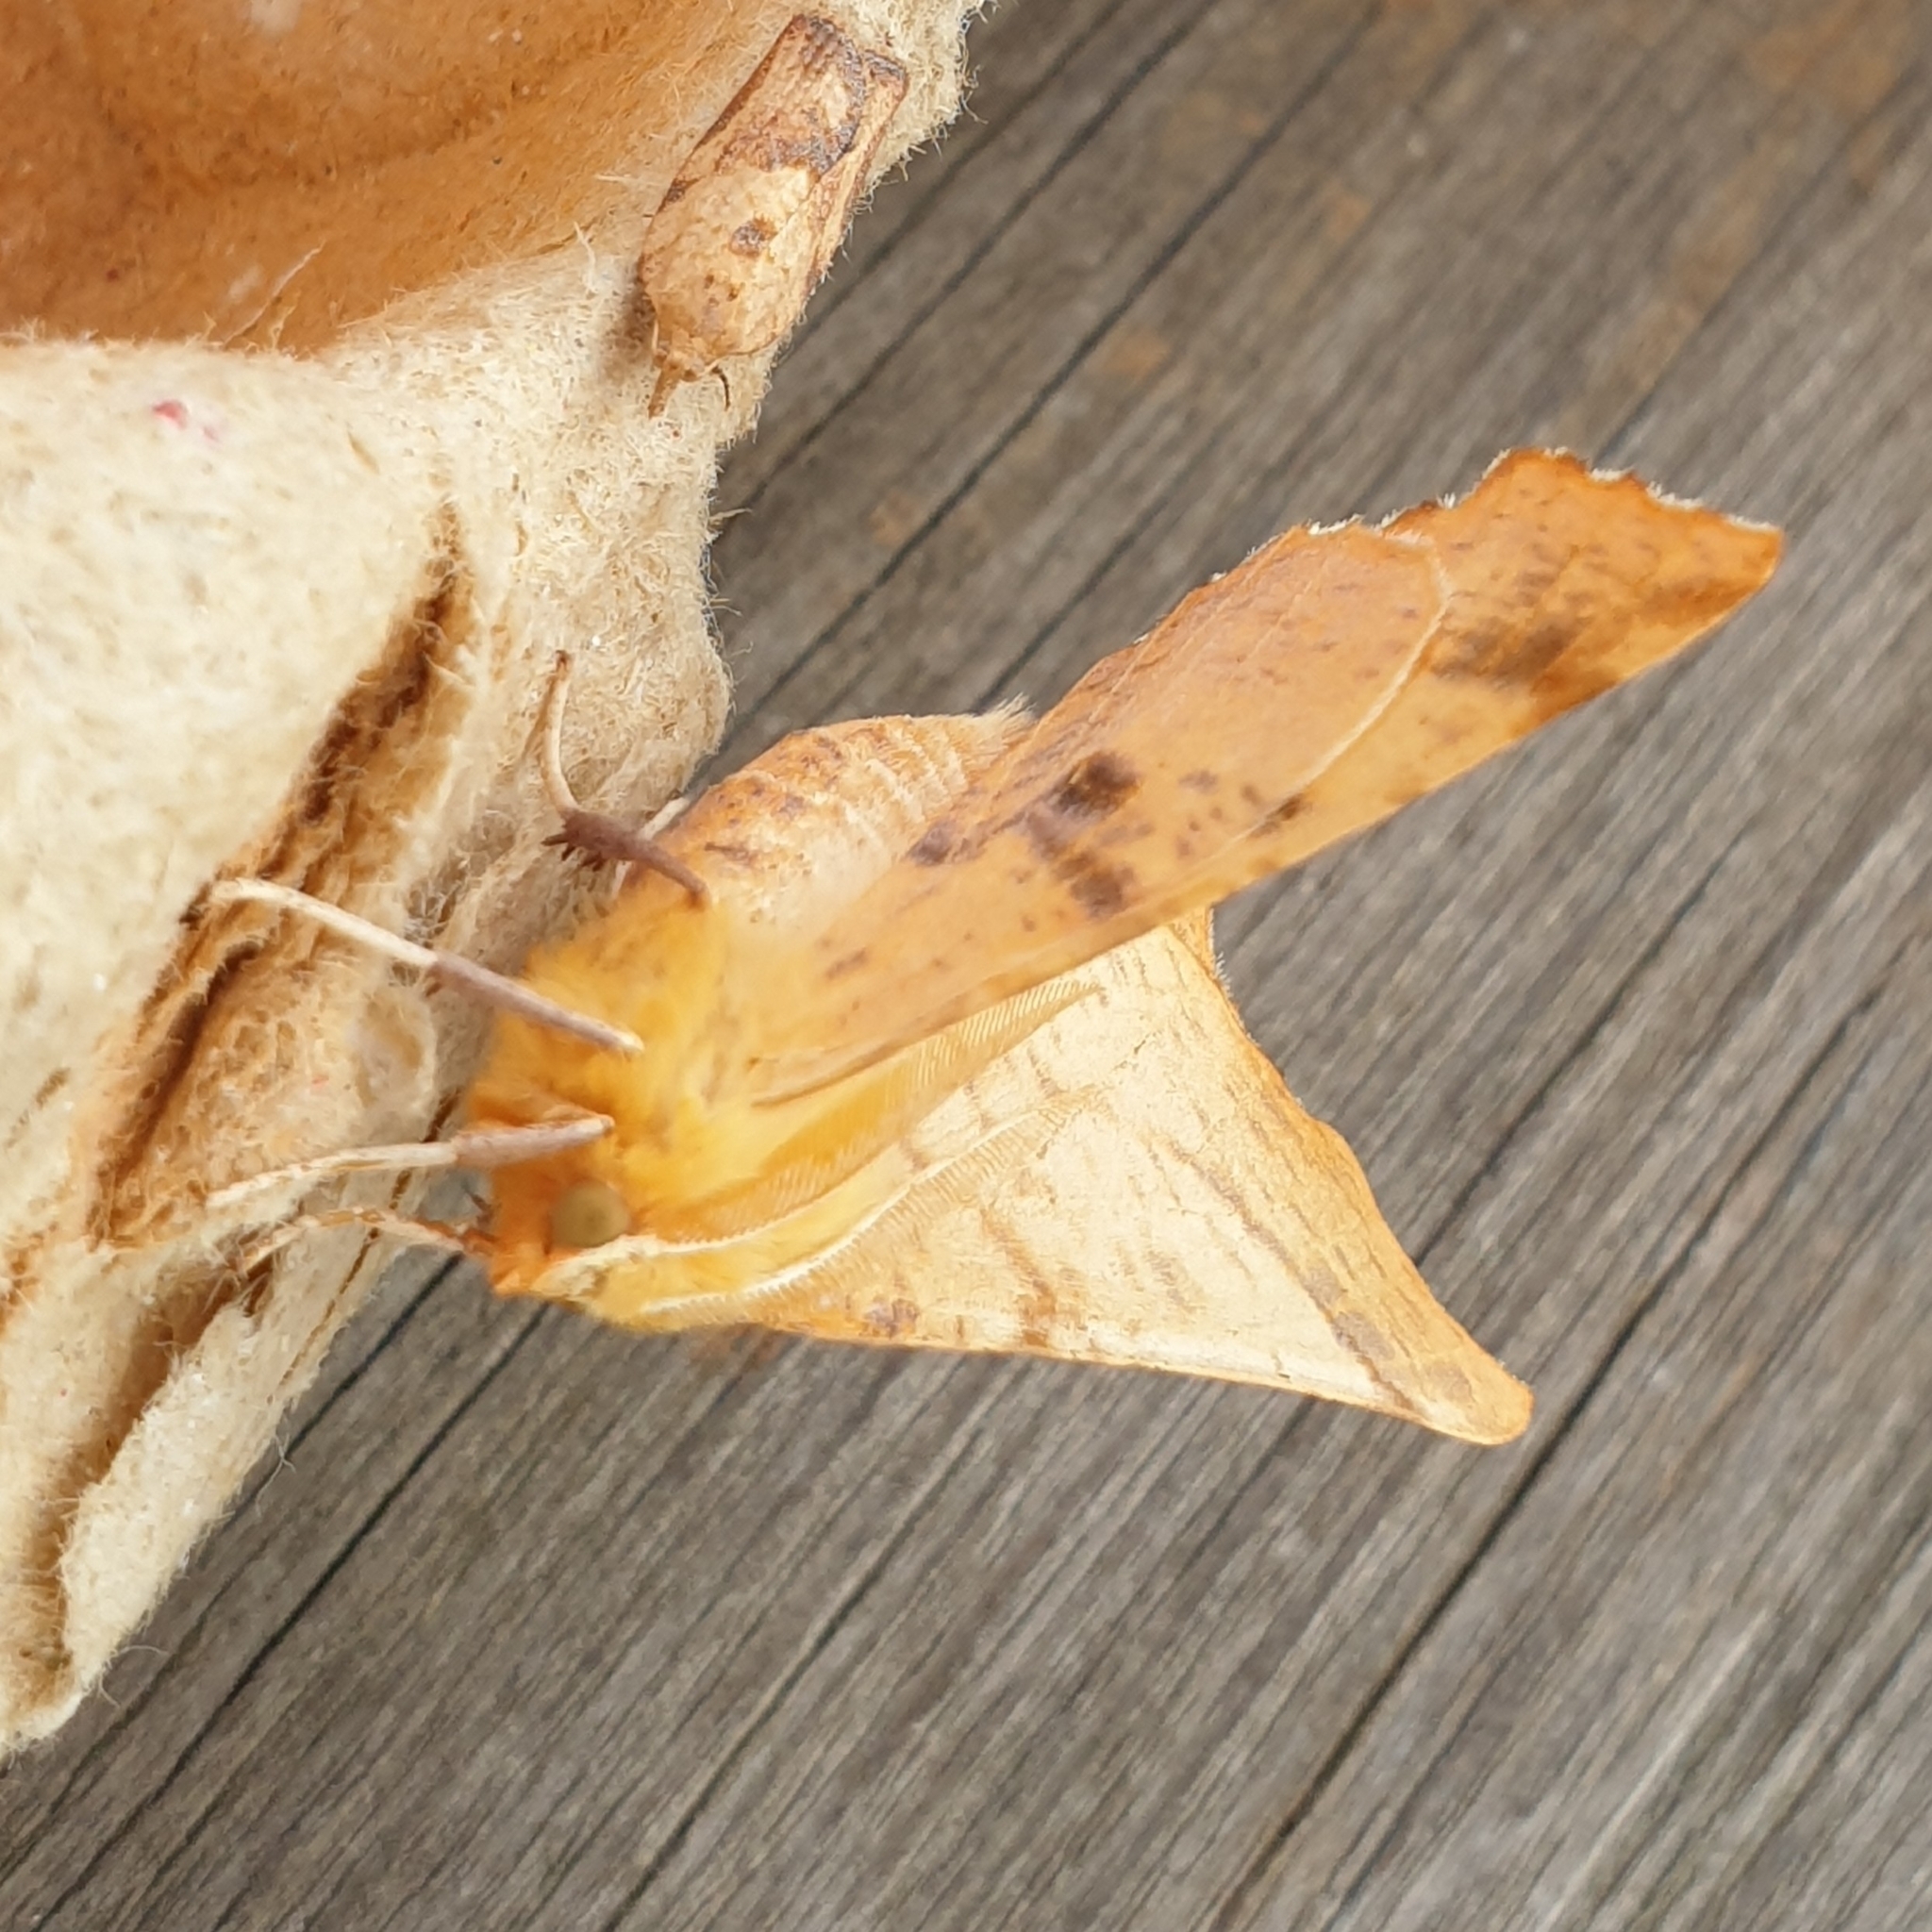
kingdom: Animalia
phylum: Arthropoda
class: Insecta
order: Lepidoptera
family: Geometridae
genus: Ennomos
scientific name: Ennomos autumnaria
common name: Large thorn
